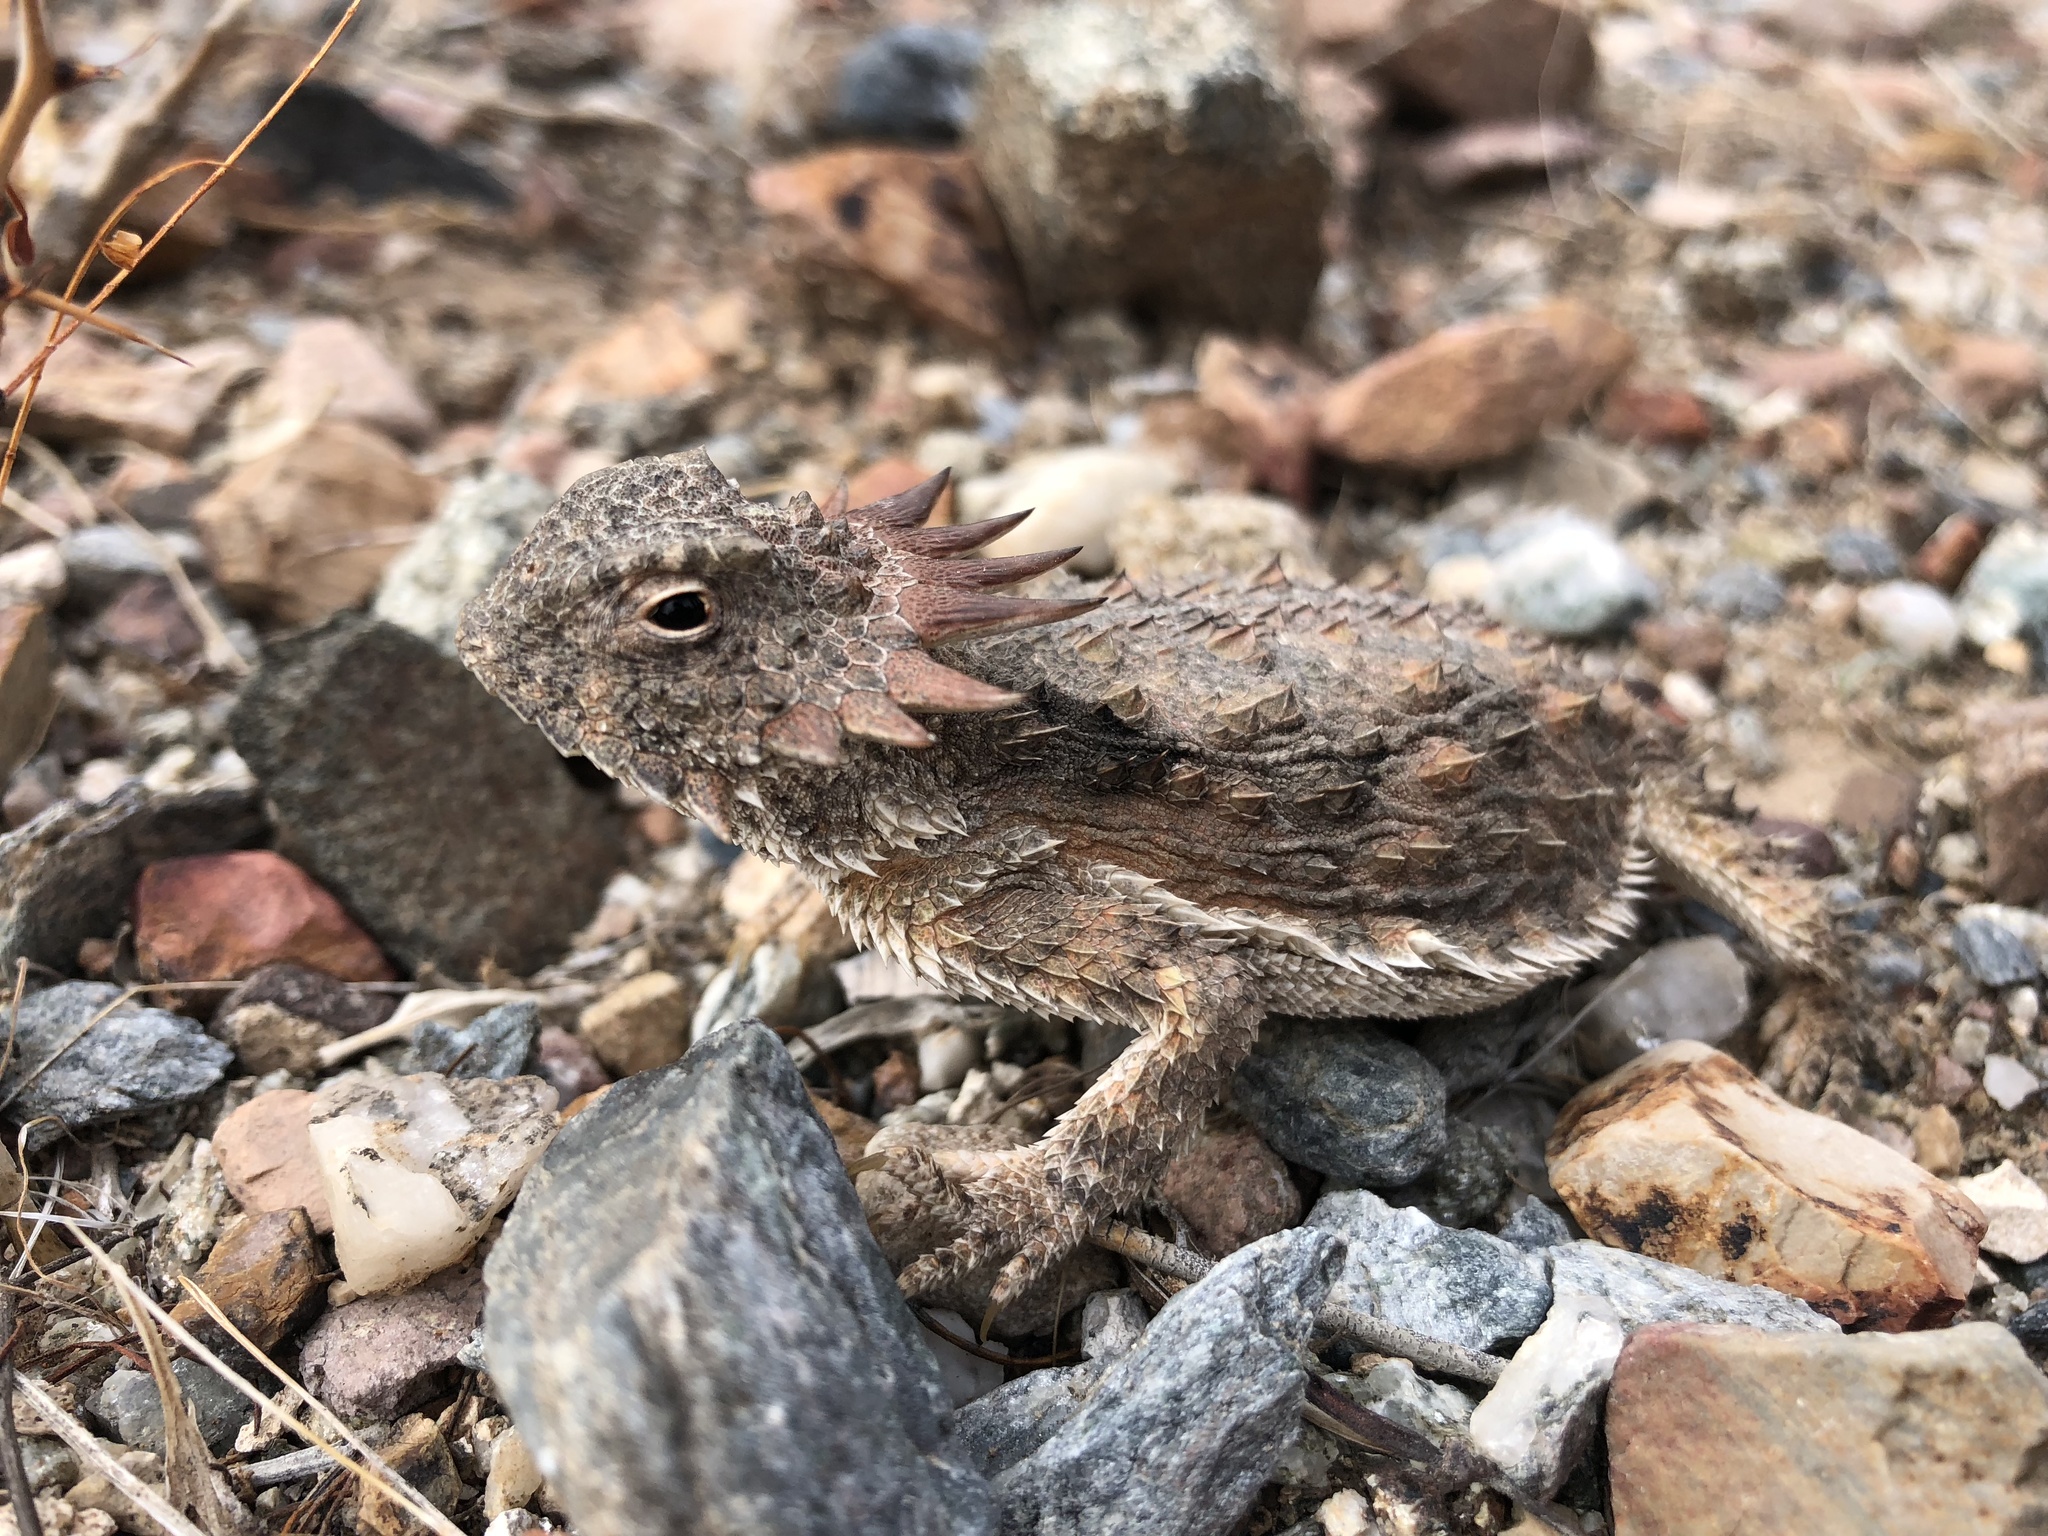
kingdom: Animalia
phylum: Chordata
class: Squamata
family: Phrynosomatidae
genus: Phrynosoma
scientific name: Phrynosoma solare
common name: Regal horned lizard
